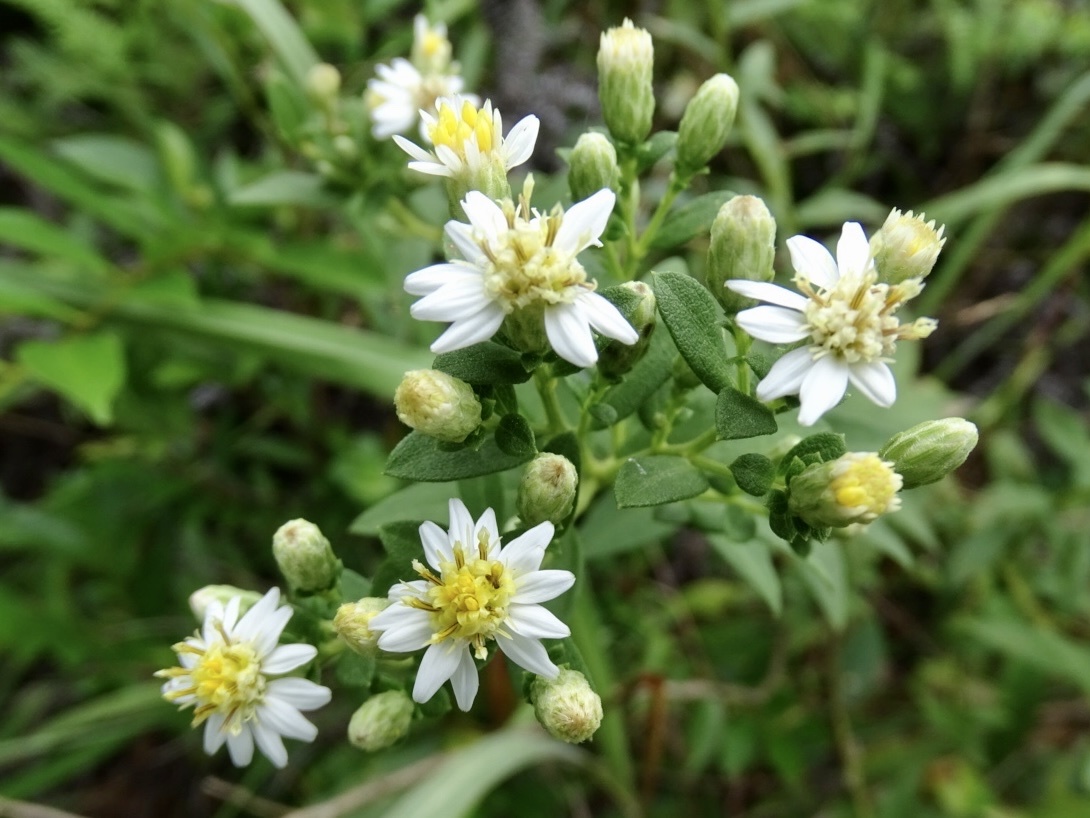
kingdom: Plantae
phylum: Tracheophyta
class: Magnoliopsida
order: Asterales
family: Asteraceae
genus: Aster
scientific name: Aster baccharoides
